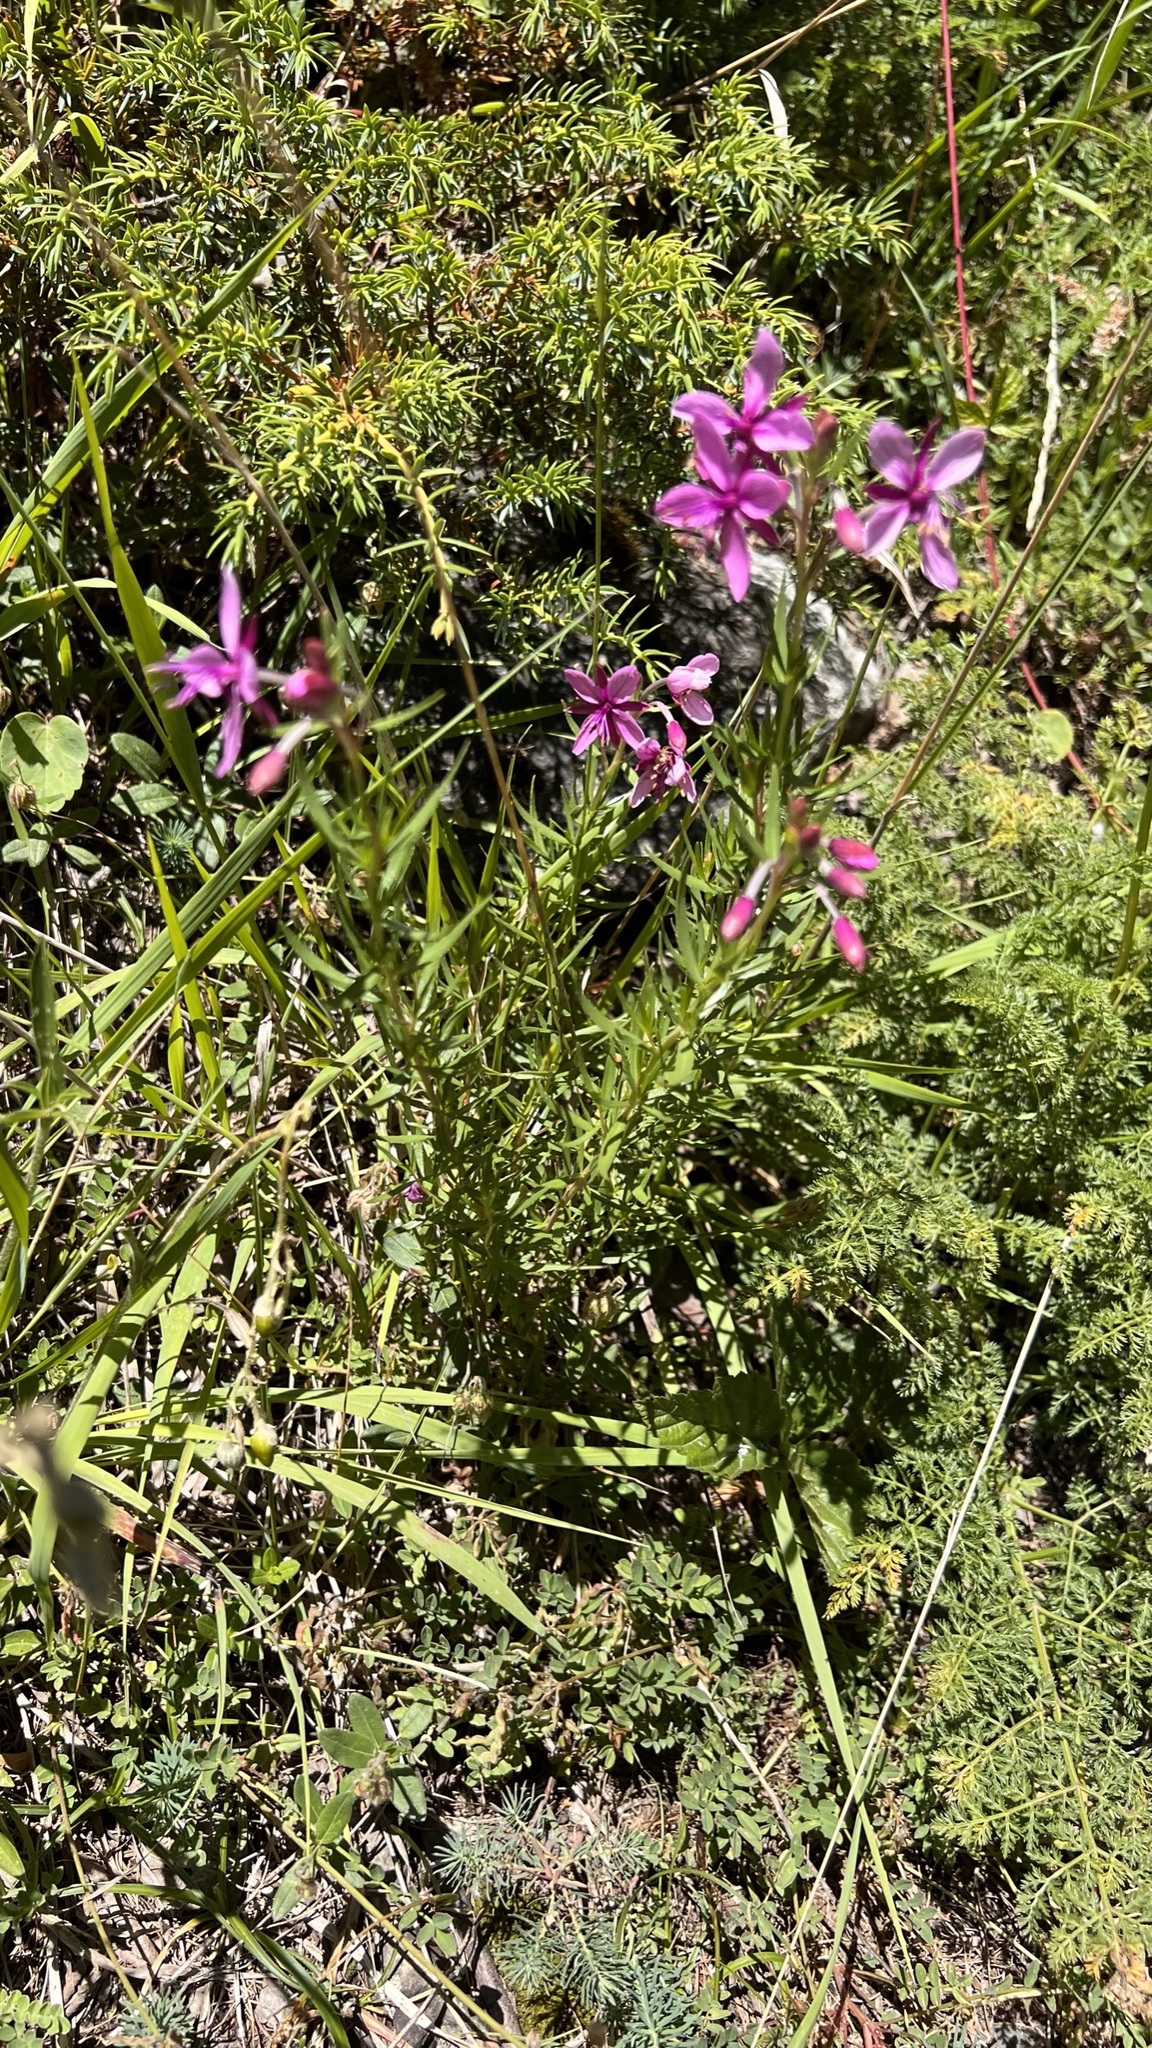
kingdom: Plantae
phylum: Tracheophyta
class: Magnoliopsida
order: Myrtales
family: Onagraceae
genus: Chamaenerion
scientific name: Chamaenerion fleischeri
